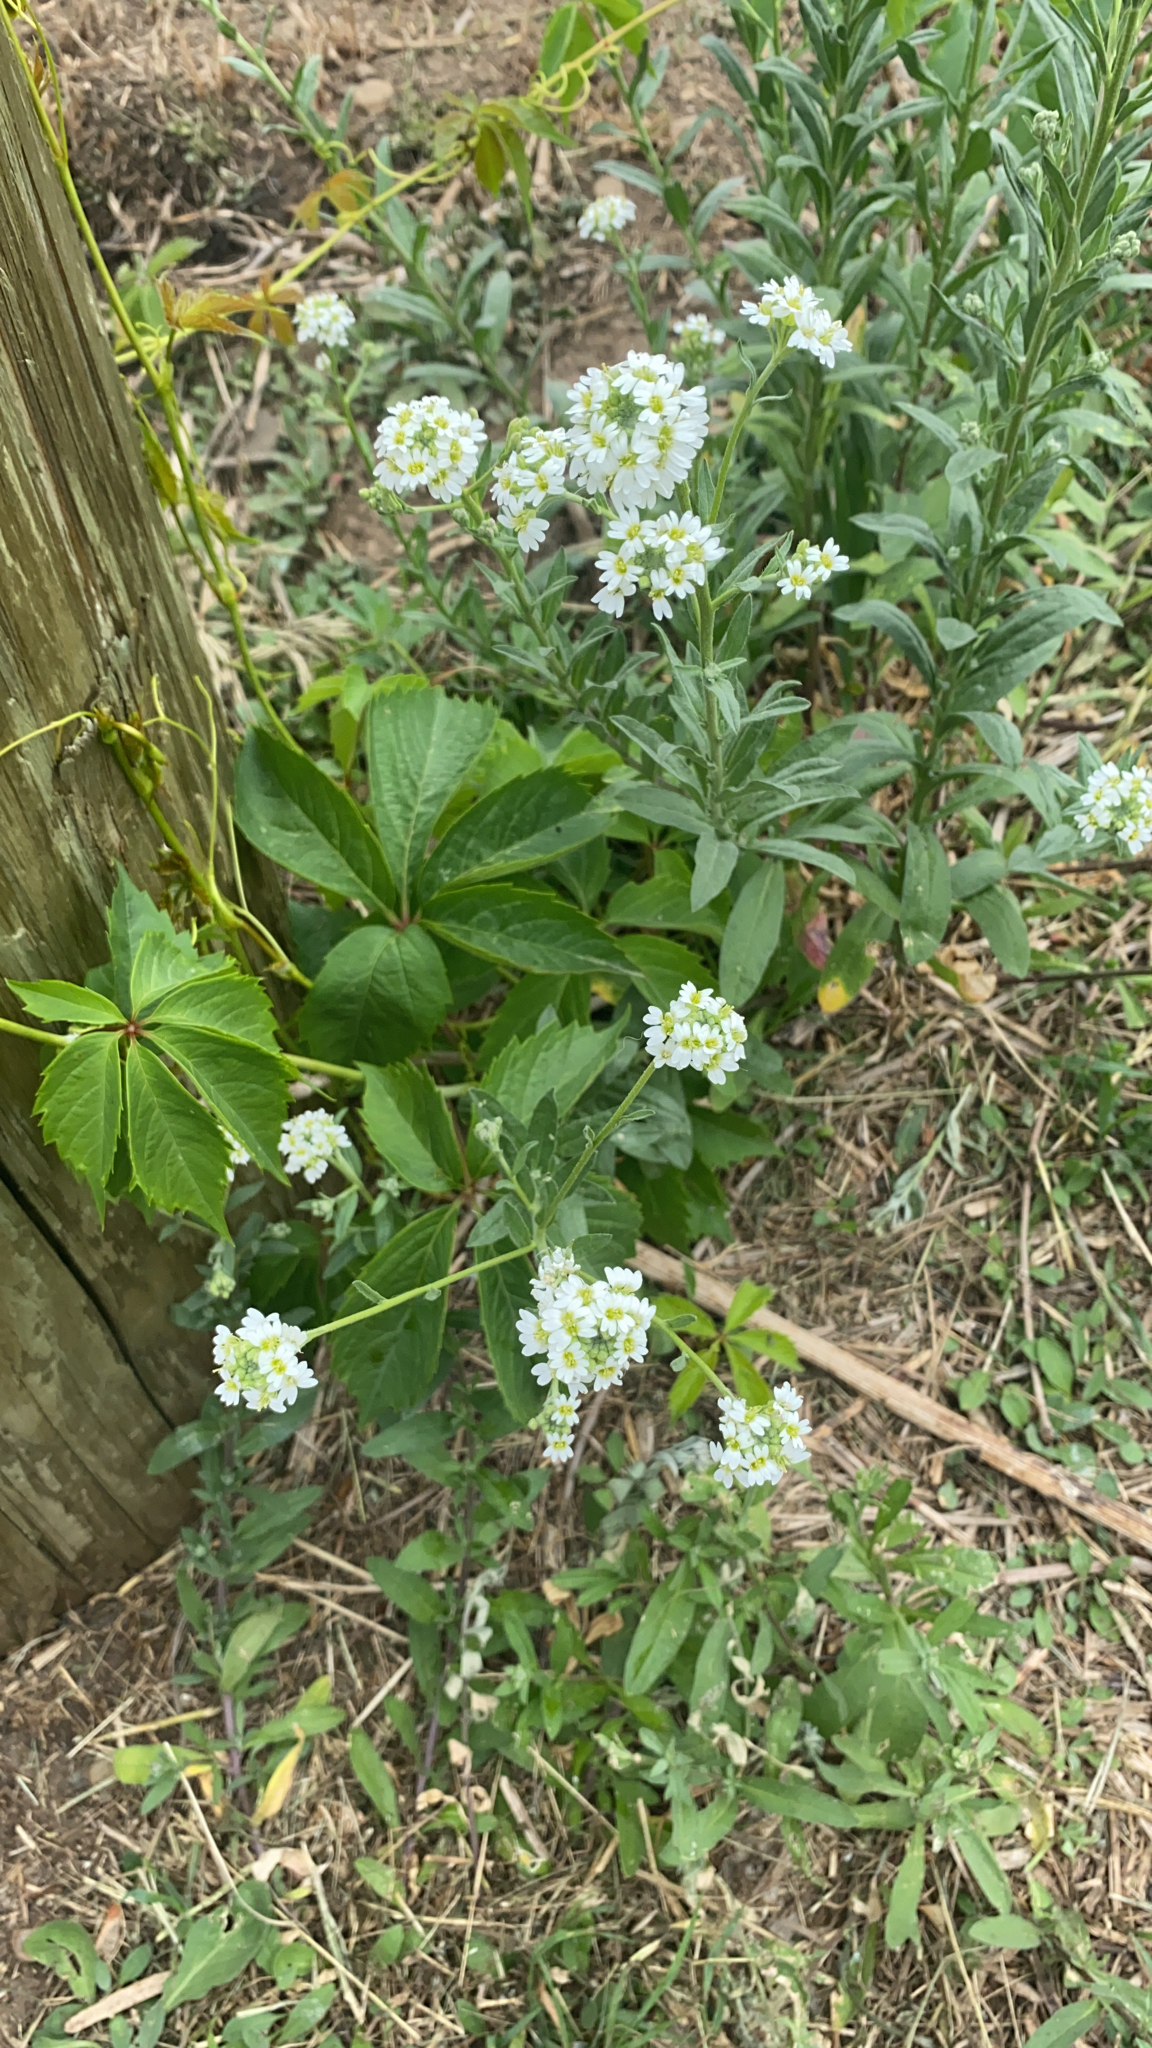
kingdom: Plantae
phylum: Tracheophyta
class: Magnoliopsida
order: Brassicales
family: Brassicaceae
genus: Berteroa
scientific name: Berteroa incana
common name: Hoary alison
